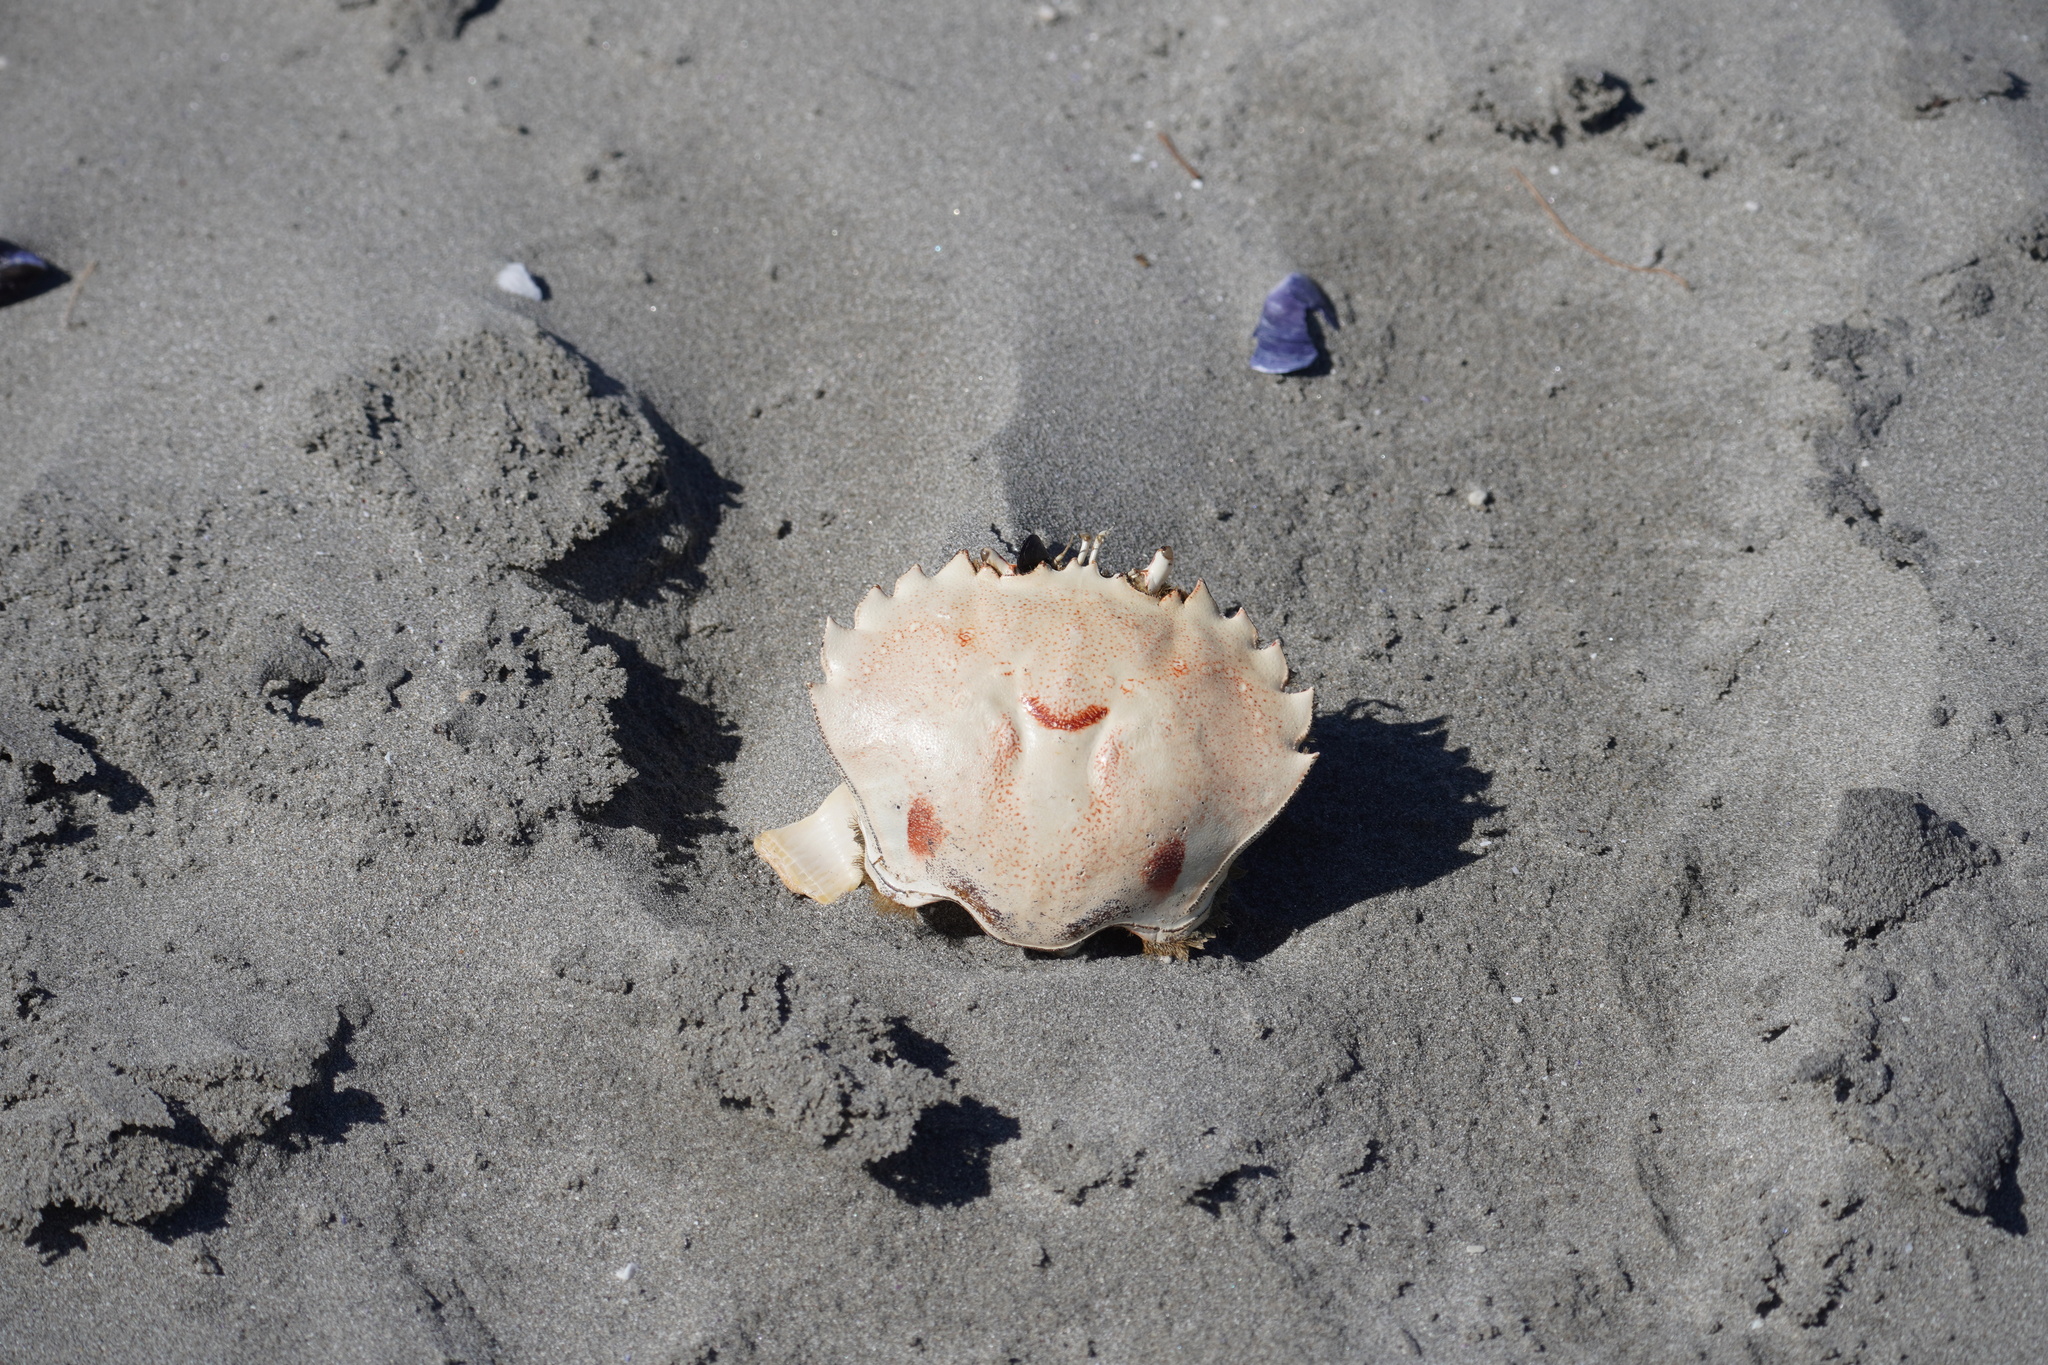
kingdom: Animalia
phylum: Arthropoda
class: Malacostraca
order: Decapoda
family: Ovalipidae
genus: Ovalipes
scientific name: Ovalipes trimaculatus
